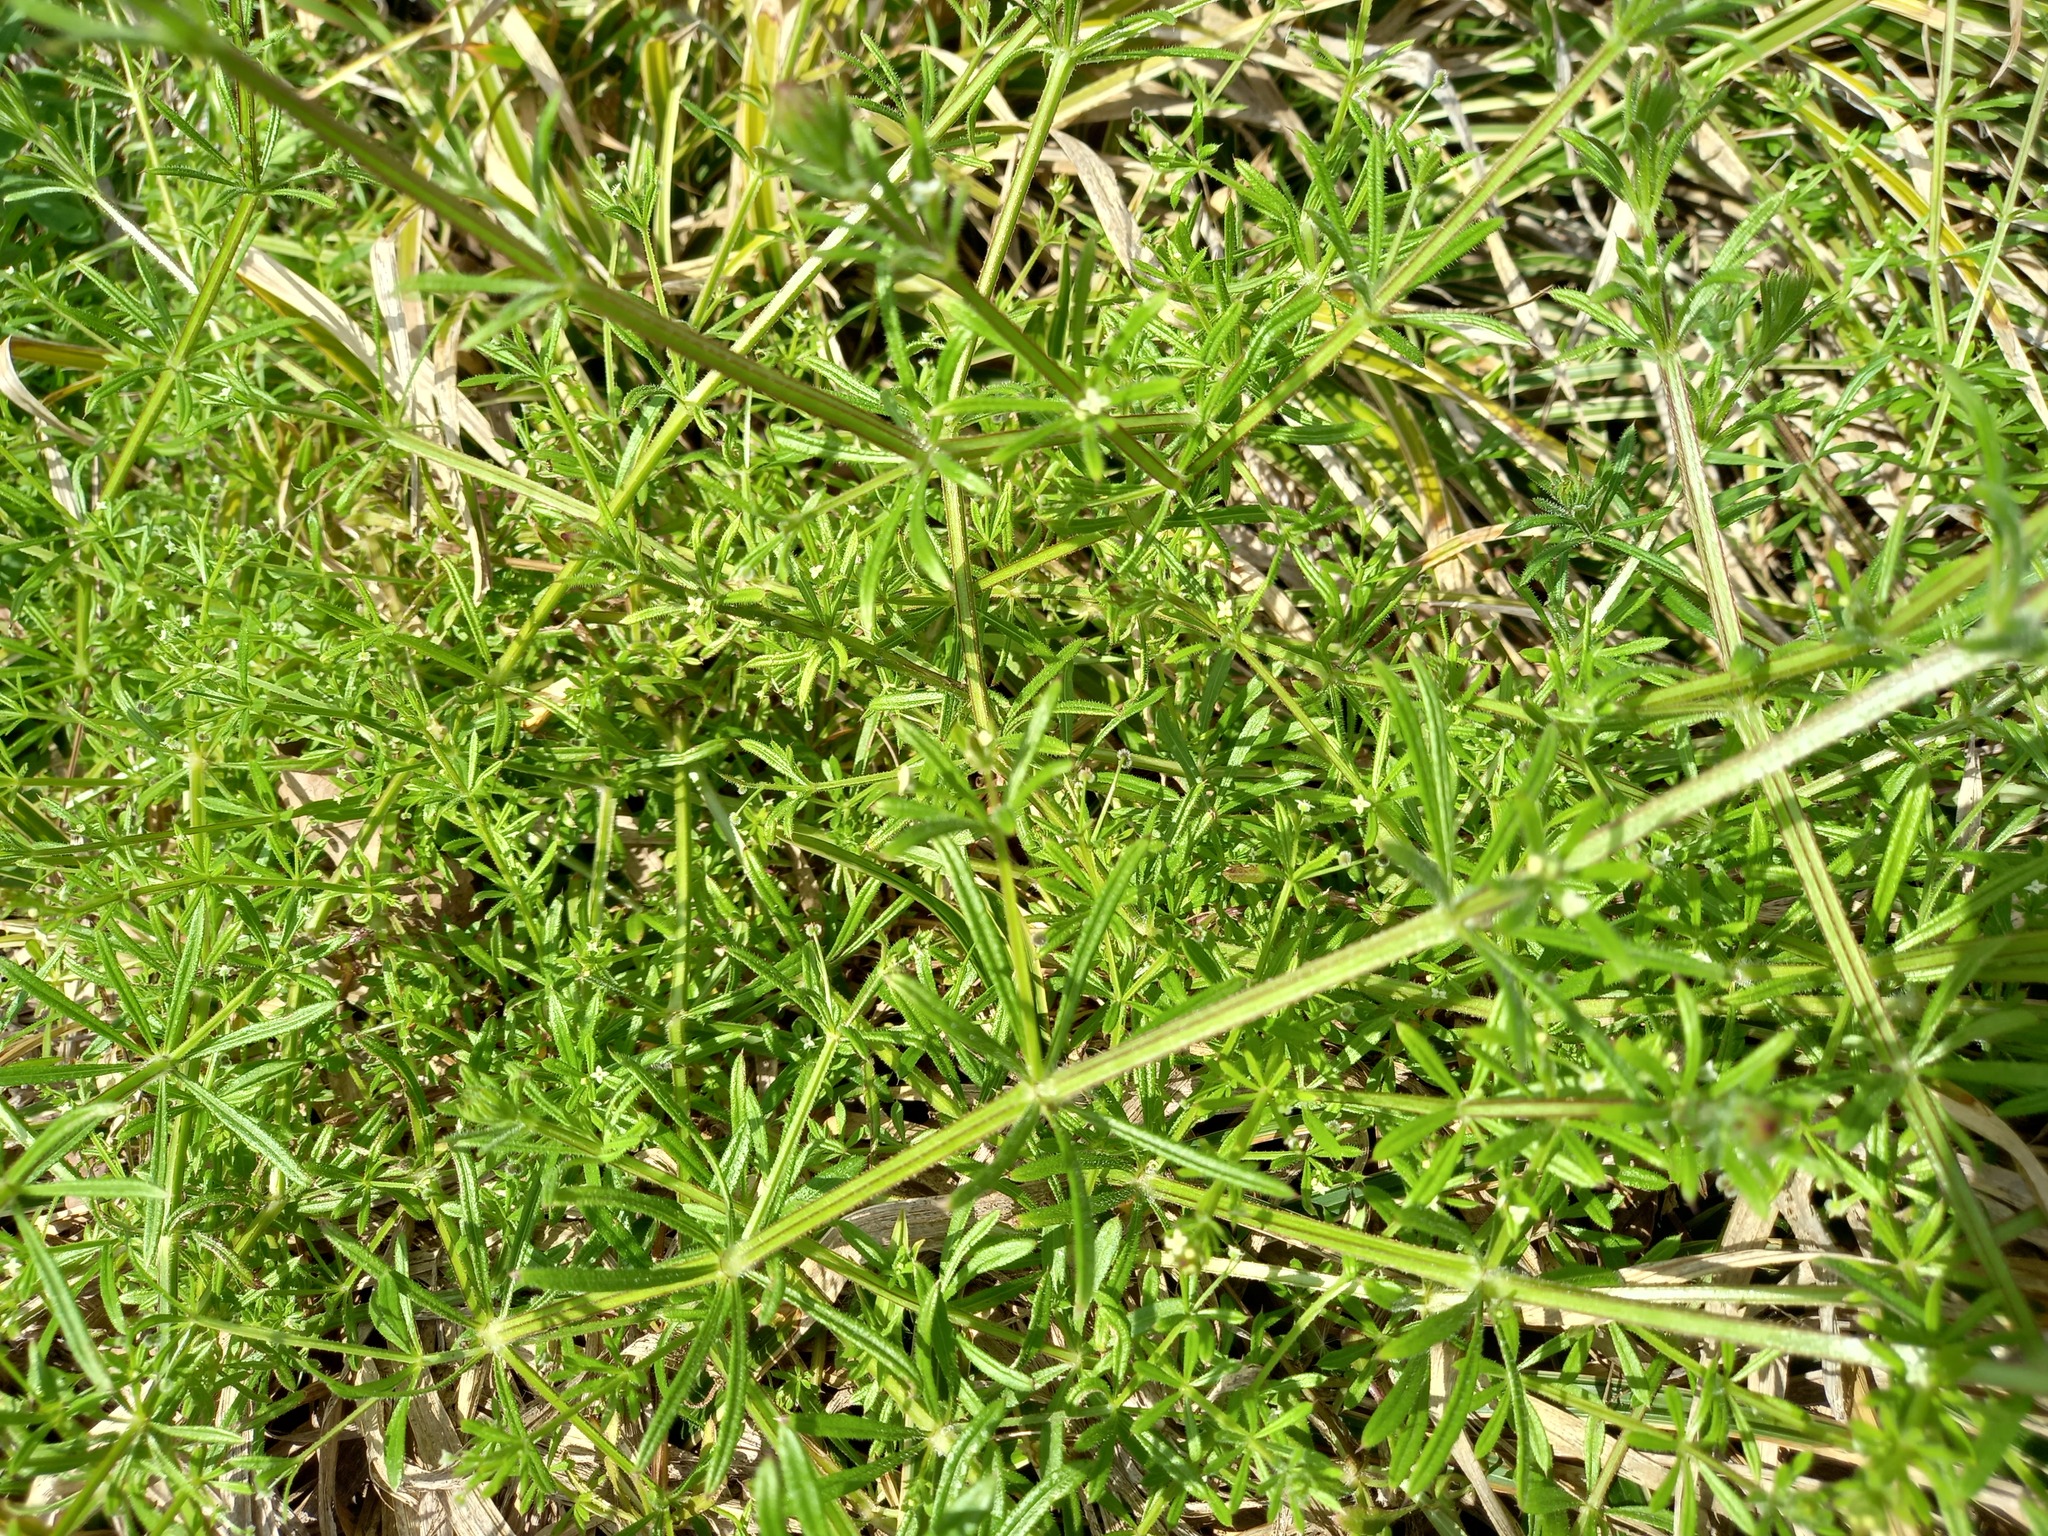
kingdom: Plantae
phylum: Tracheophyta
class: Magnoliopsida
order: Gentianales
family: Rubiaceae
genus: Galium
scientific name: Galium aparine
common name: Cleavers
